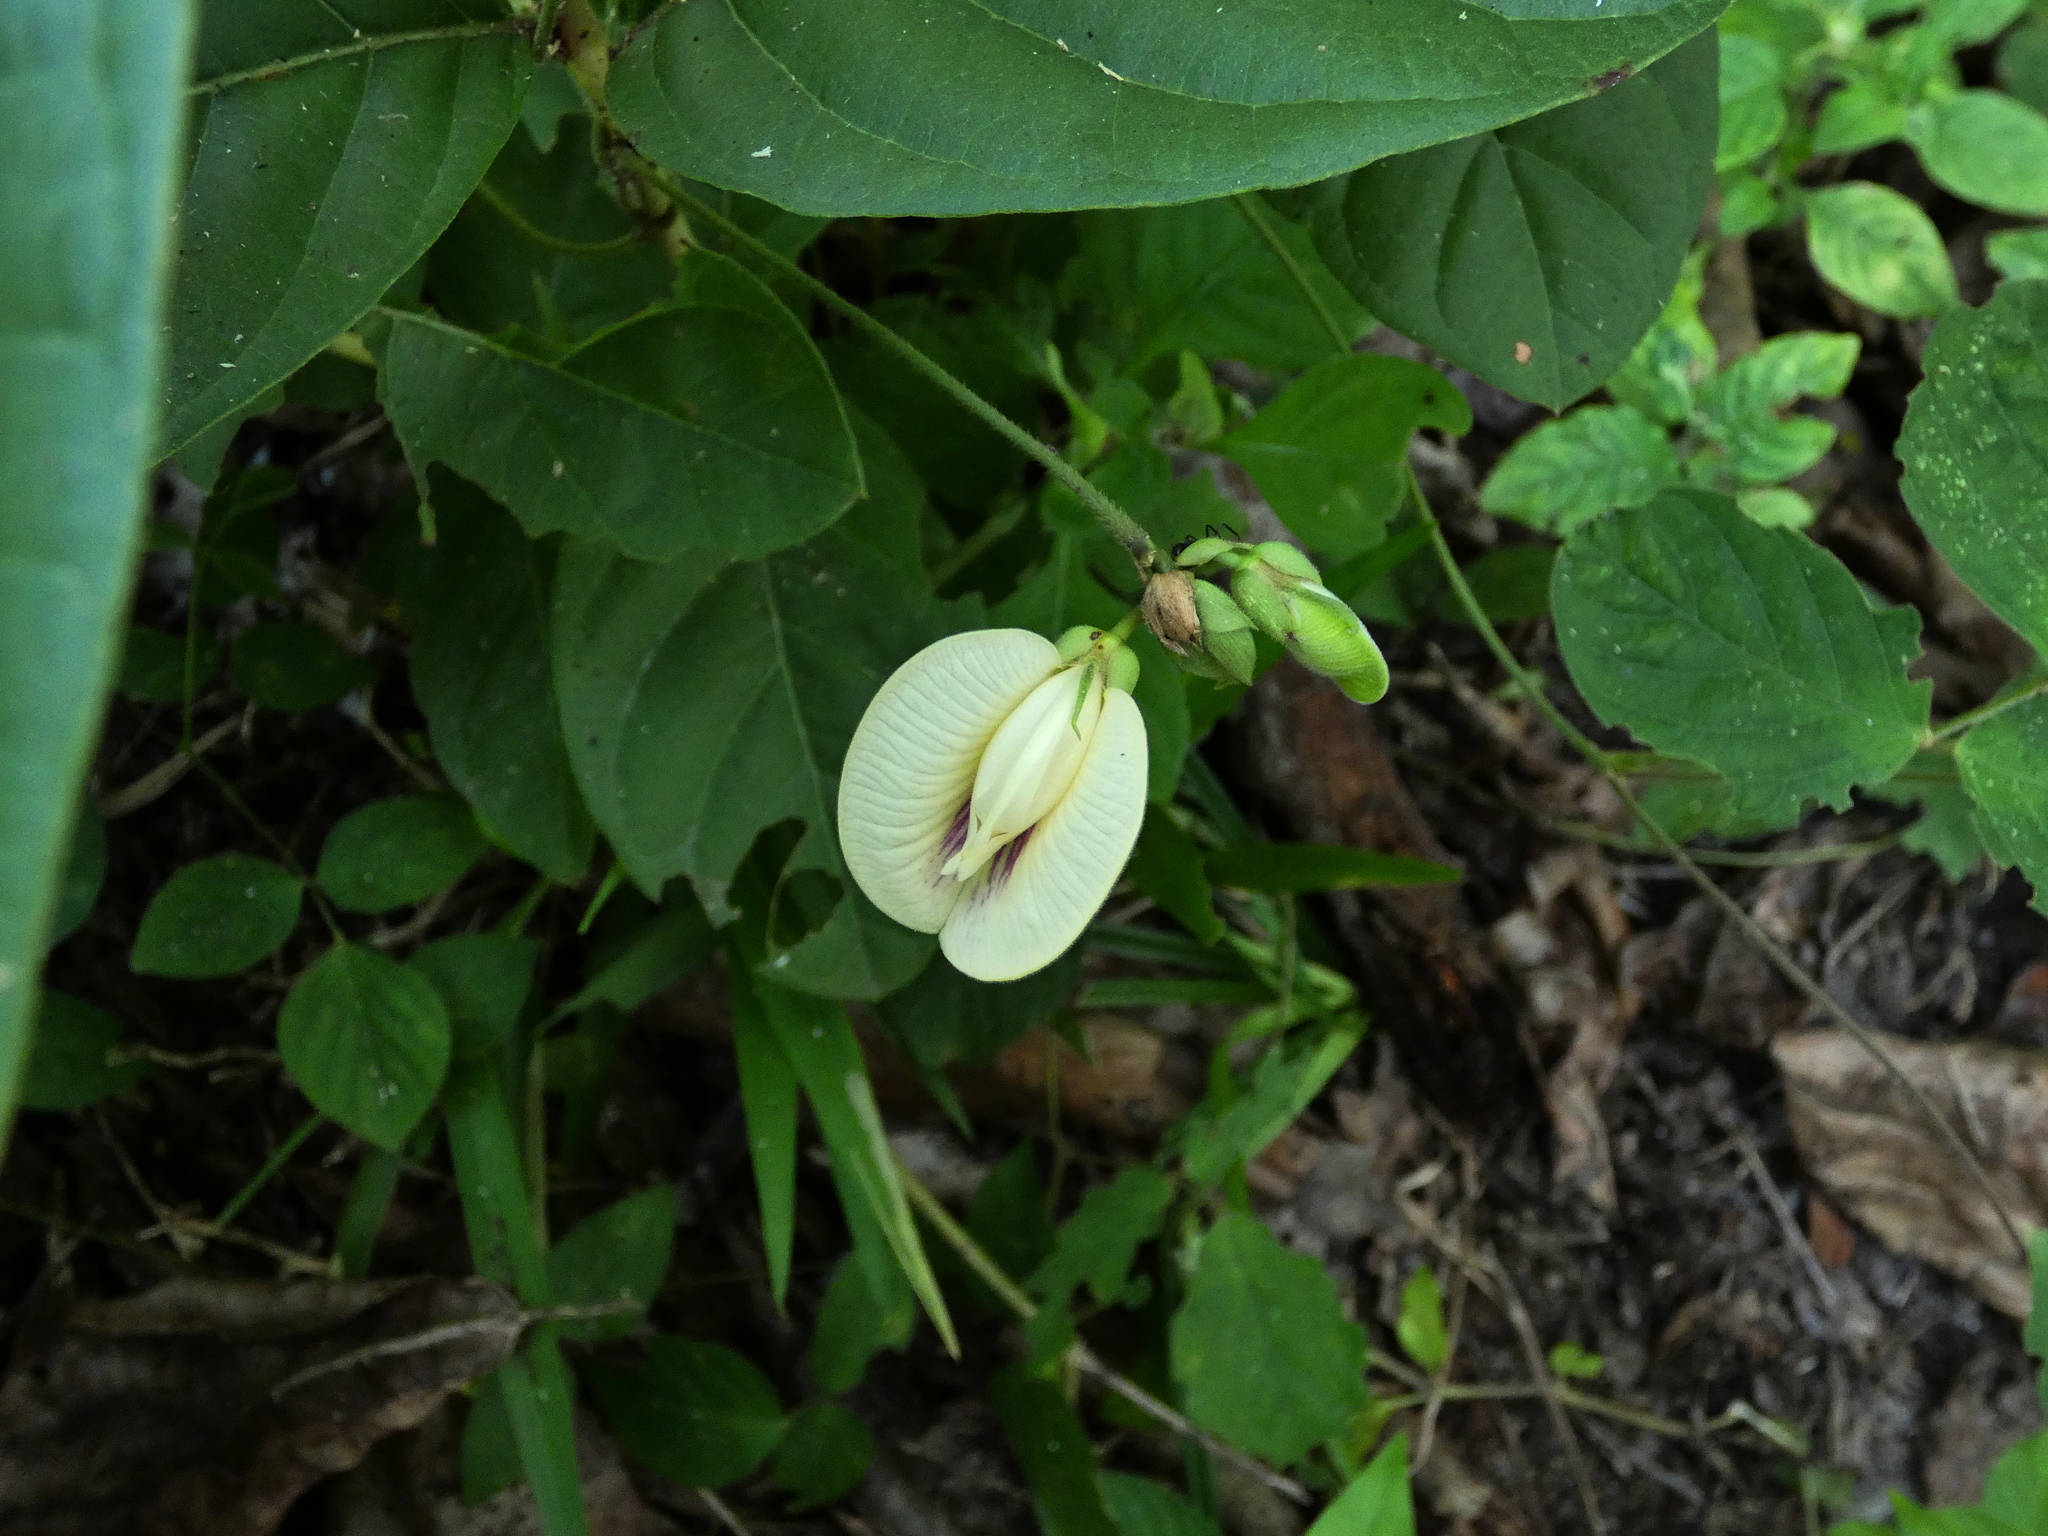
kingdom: Plantae
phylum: Tracheophyta
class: Magnoliopsida
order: Fabales
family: Fabaceae
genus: Centrosema
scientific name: Centrosema pubescens
